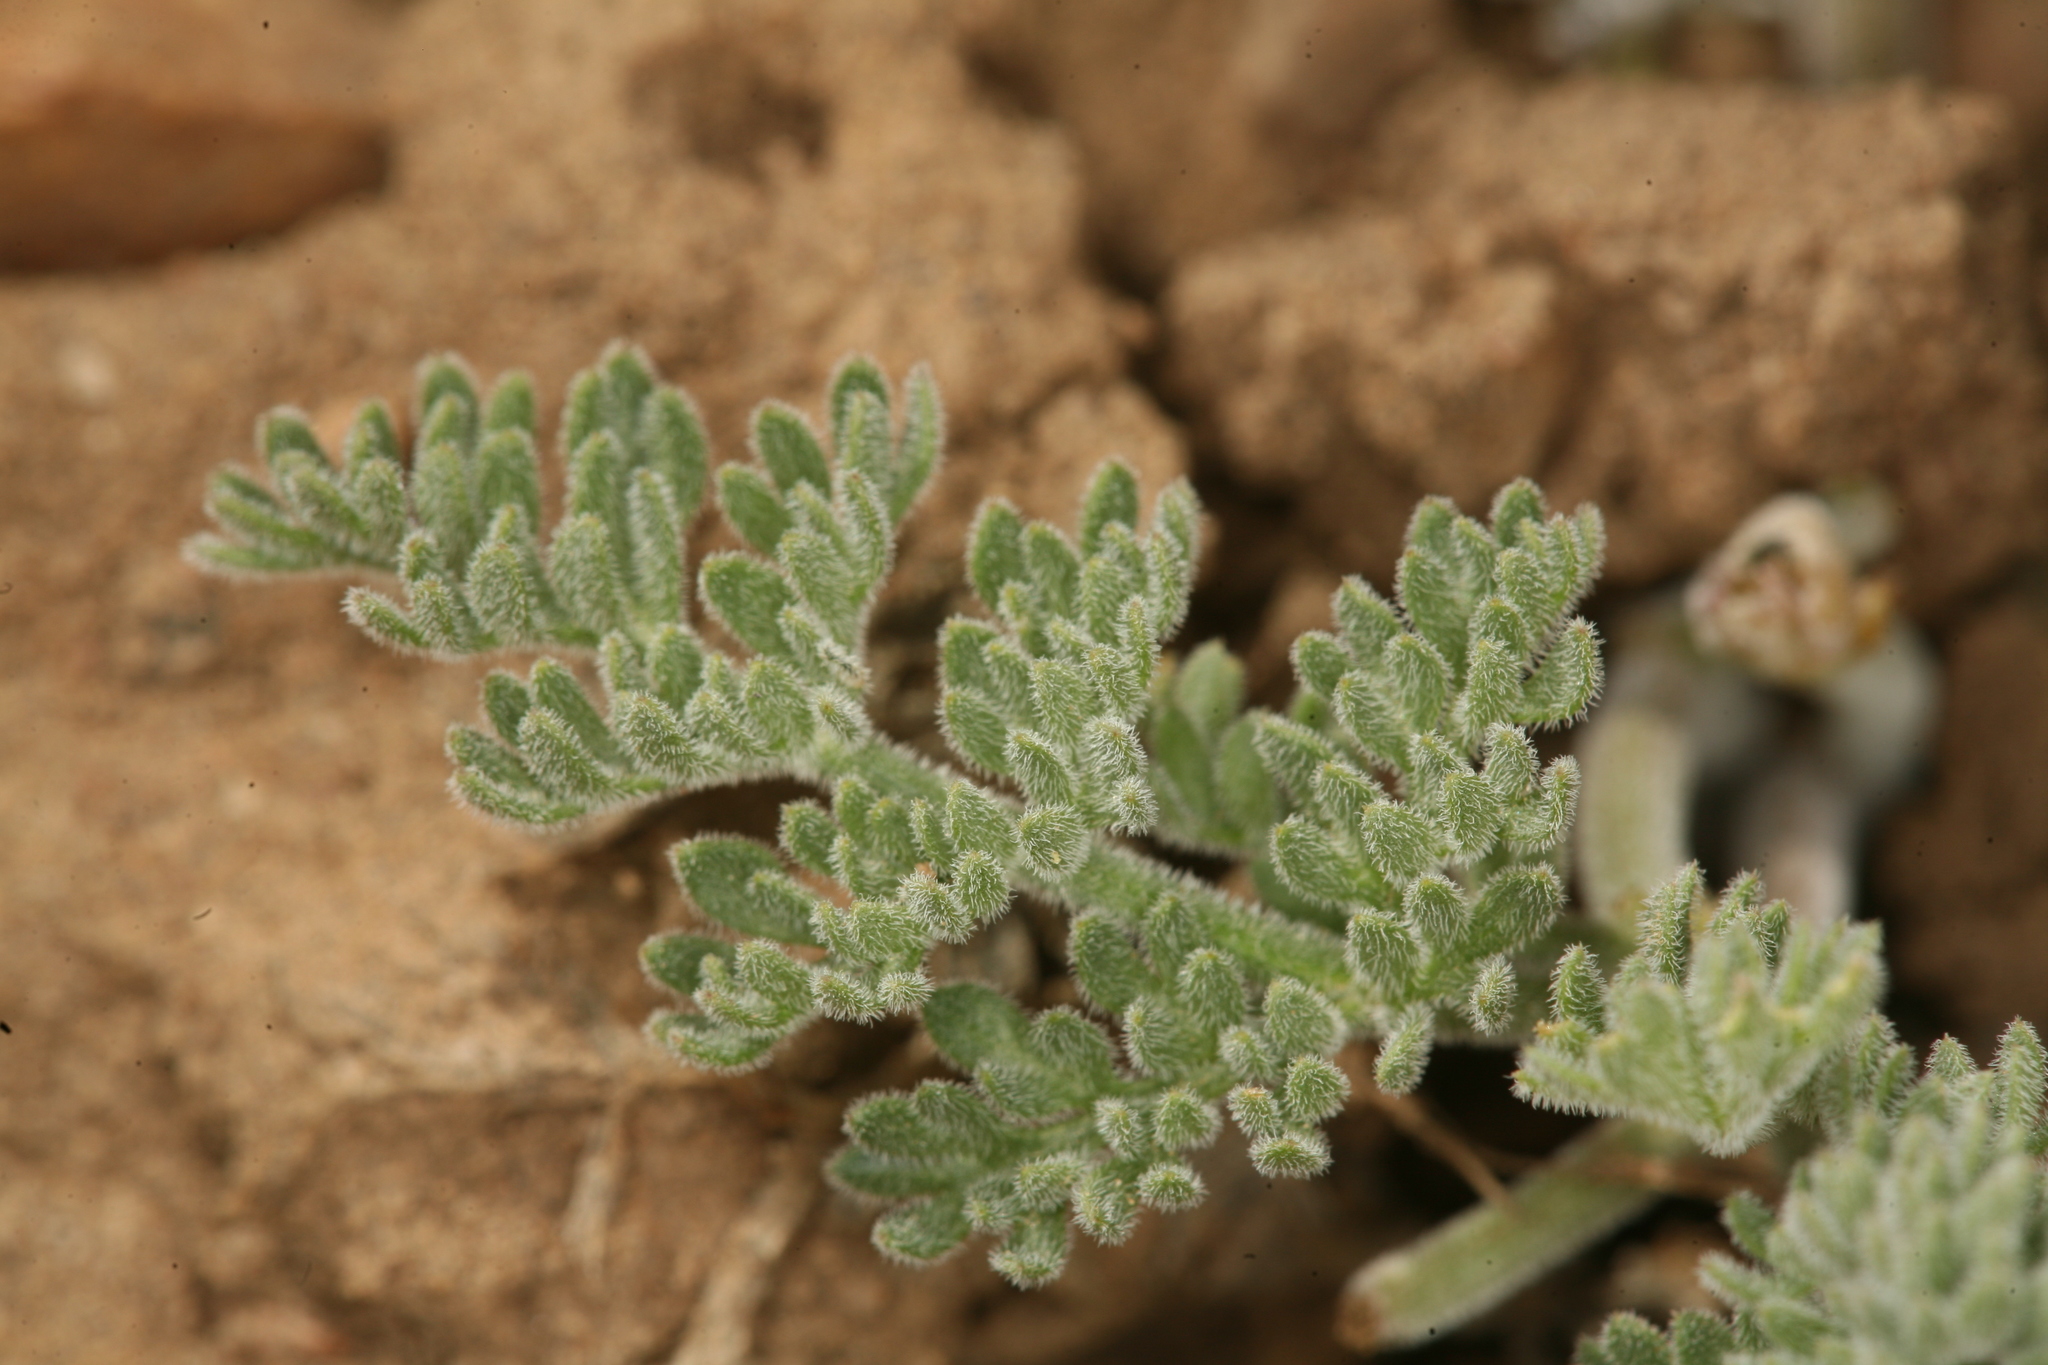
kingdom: Plantae
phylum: Tracheophyta
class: Magnoliopsida
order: Apiales
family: Apiaceae
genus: Lomatium
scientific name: Lomatium foeniculaceum
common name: Desert-parsley
